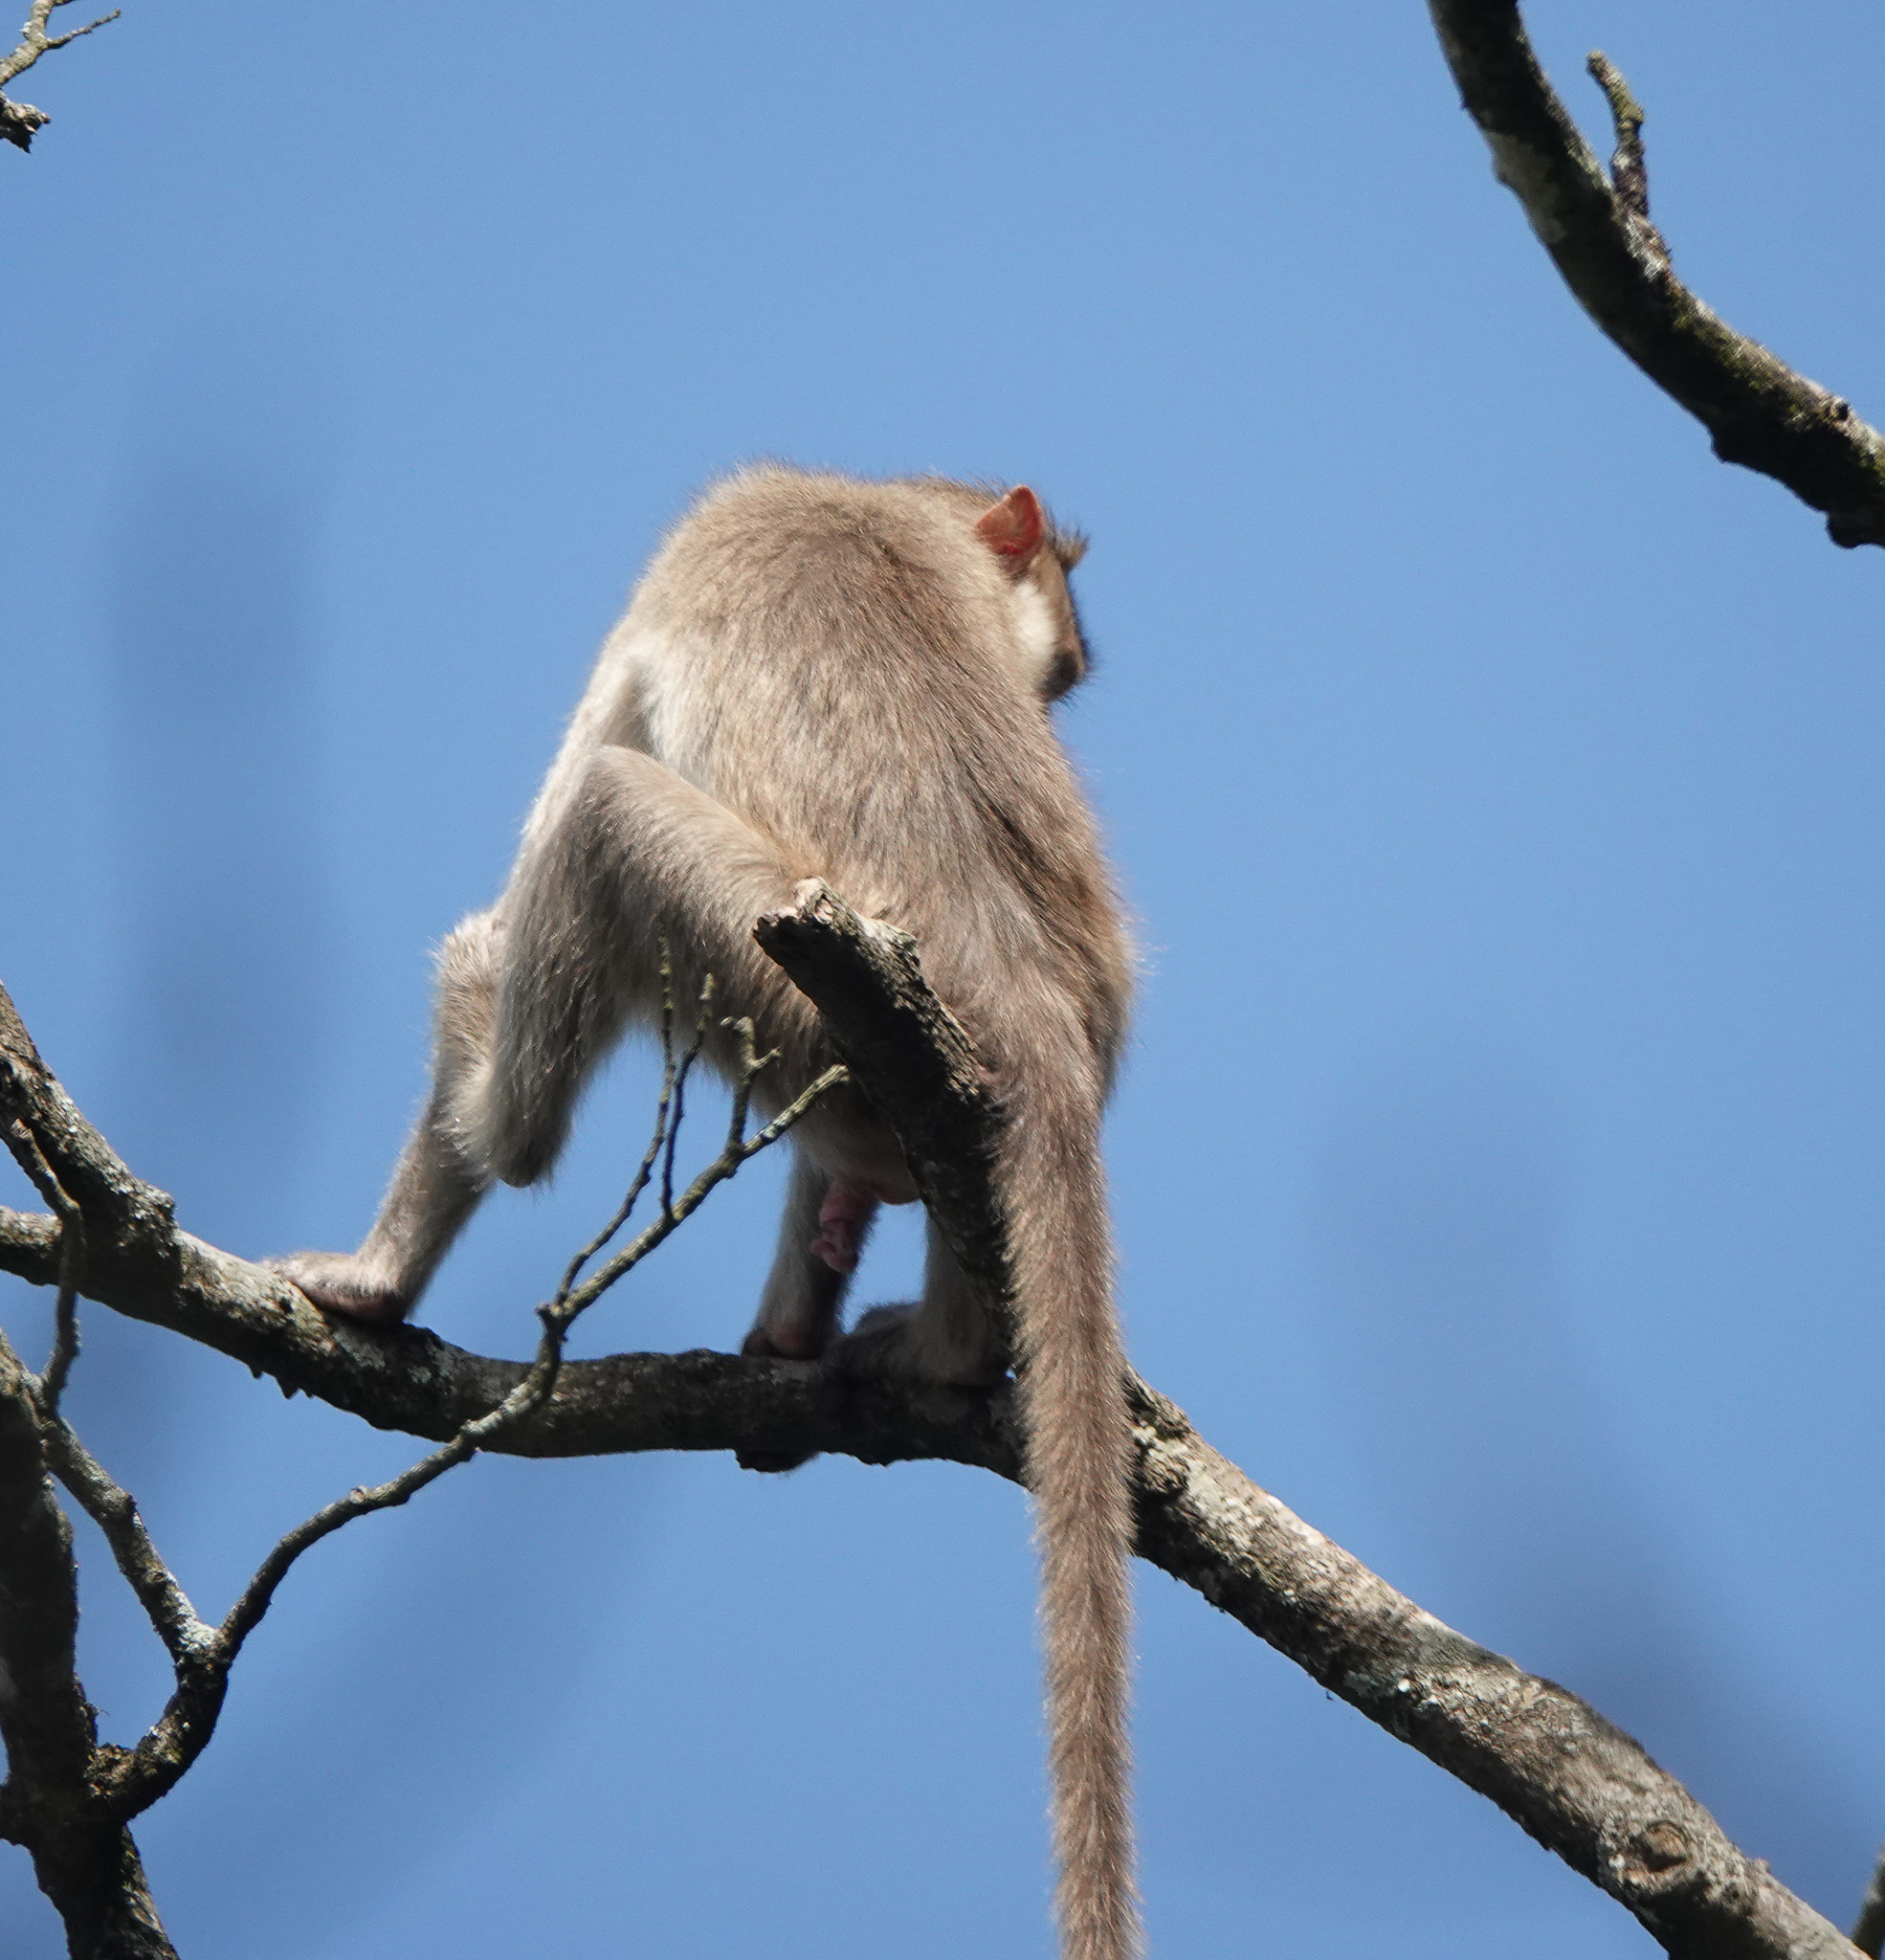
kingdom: Animalia
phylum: Chordata
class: Mammalia
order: Primates
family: Cercopithecidae
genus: Macaca
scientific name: Macaca radiata
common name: Bonnet macaque
